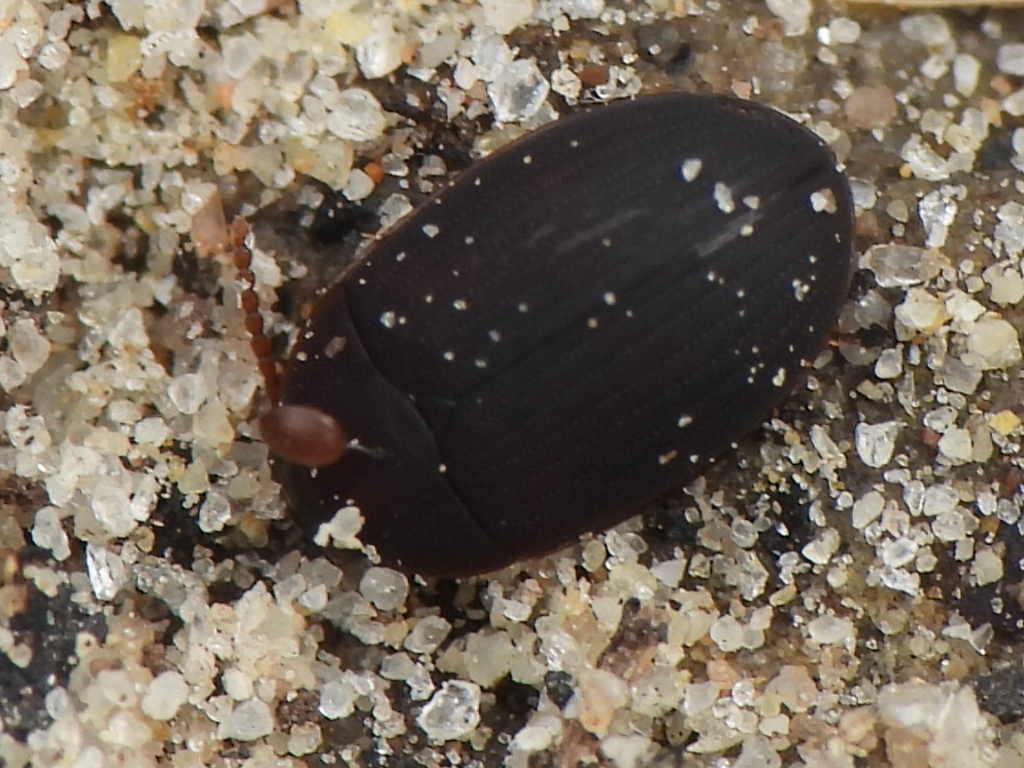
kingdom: Animalia
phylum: Arthropoda
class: Insecta
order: Coleoptera
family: Tenebrionidae
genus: Platydema
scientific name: Platydema ruficornis
